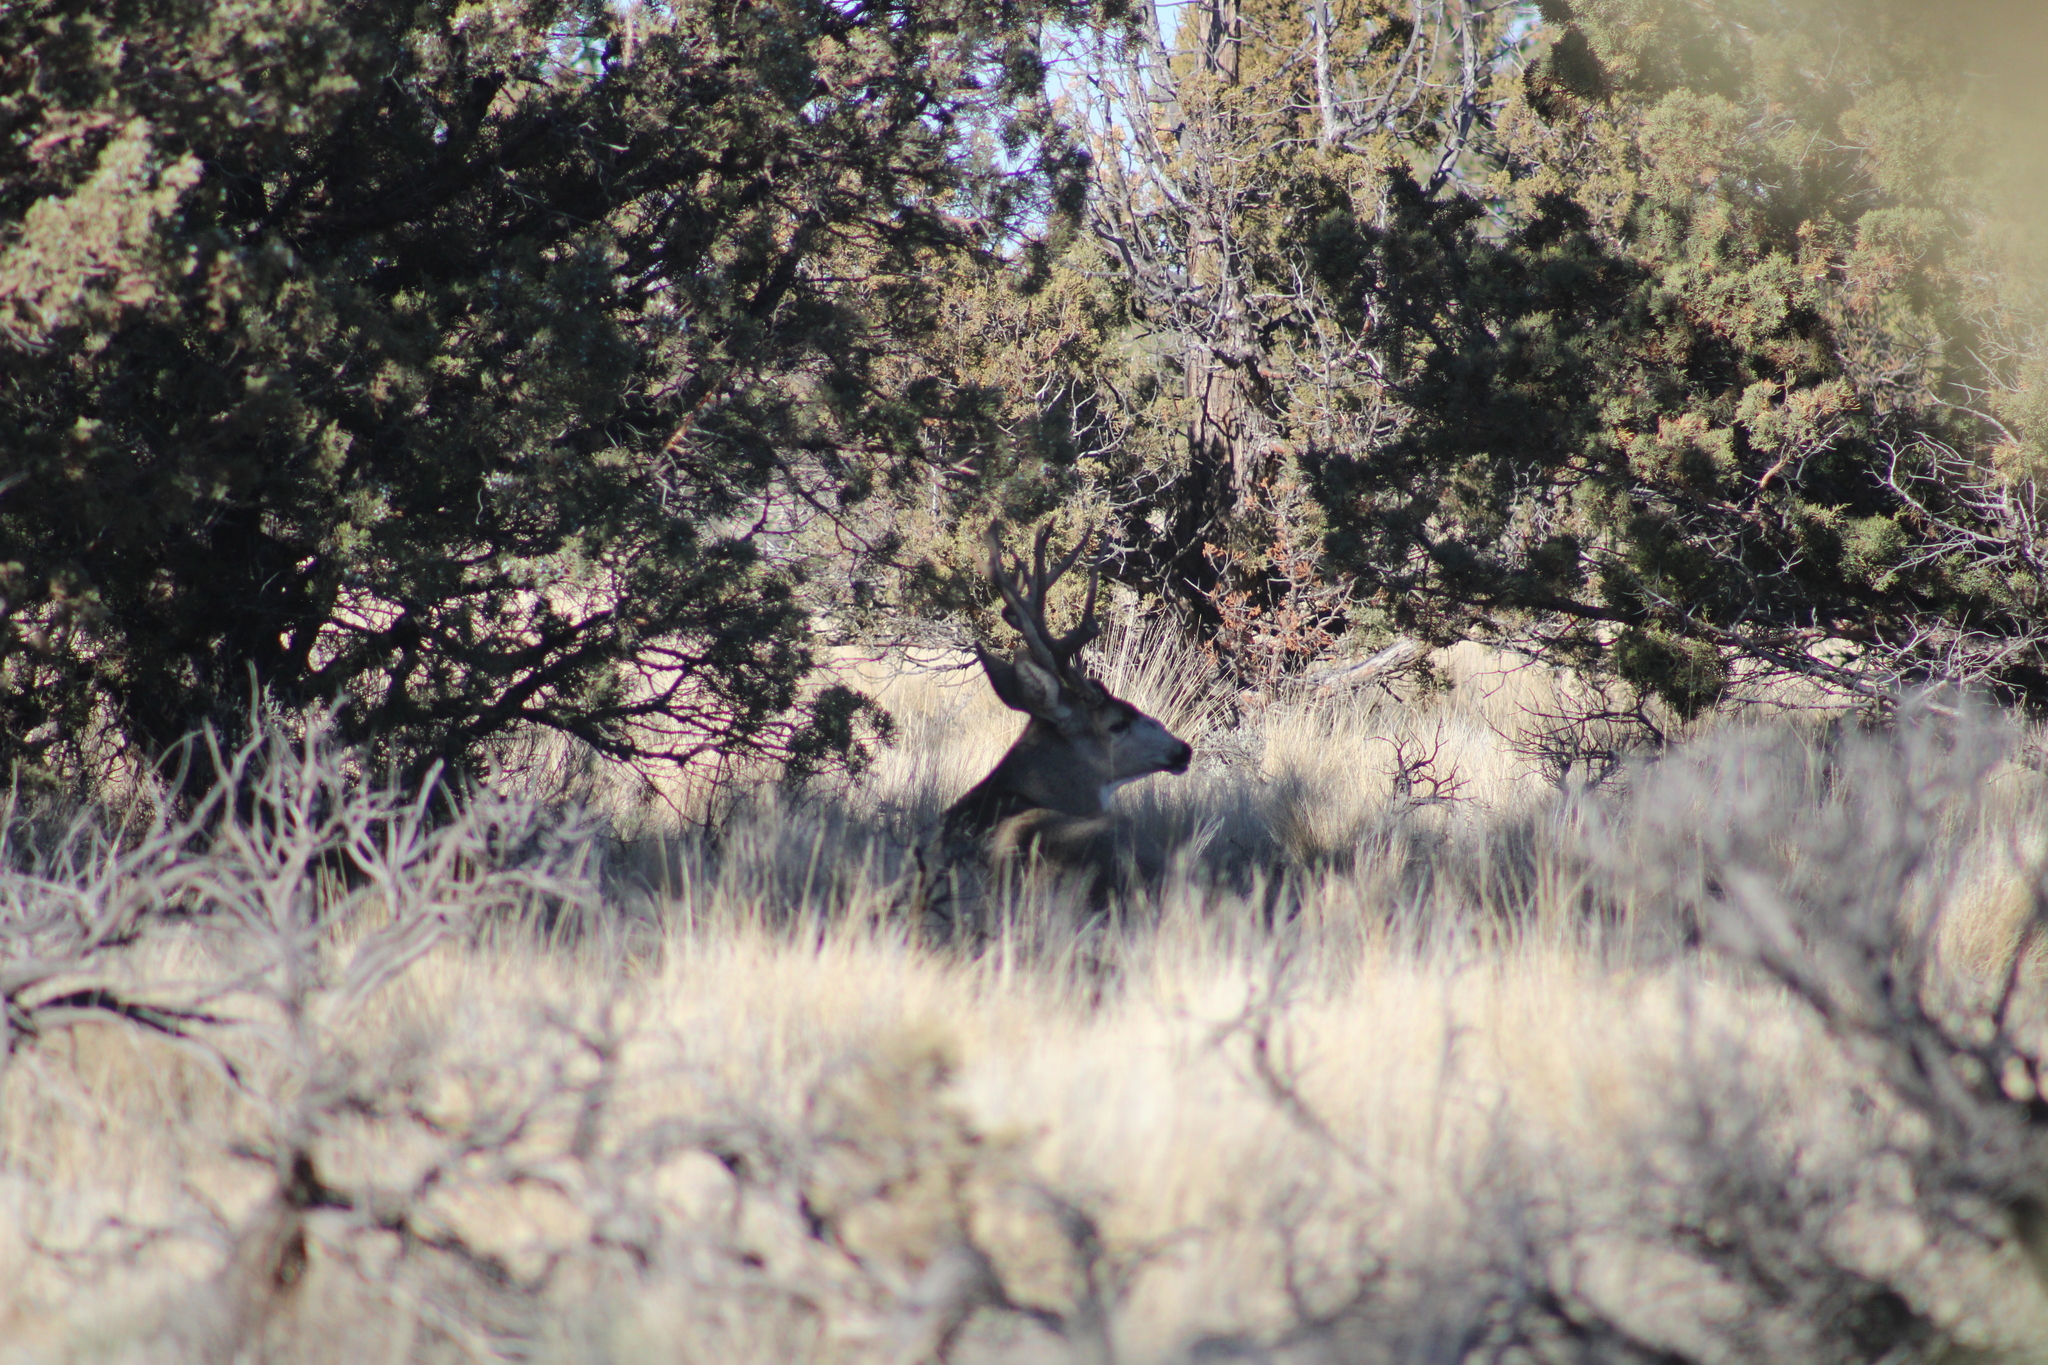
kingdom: Animalia
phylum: Chordata
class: Mammalia
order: Artiodactyla
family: Cervidae
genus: Odocoileus
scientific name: Odocoileus hemionus
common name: Mule deer
